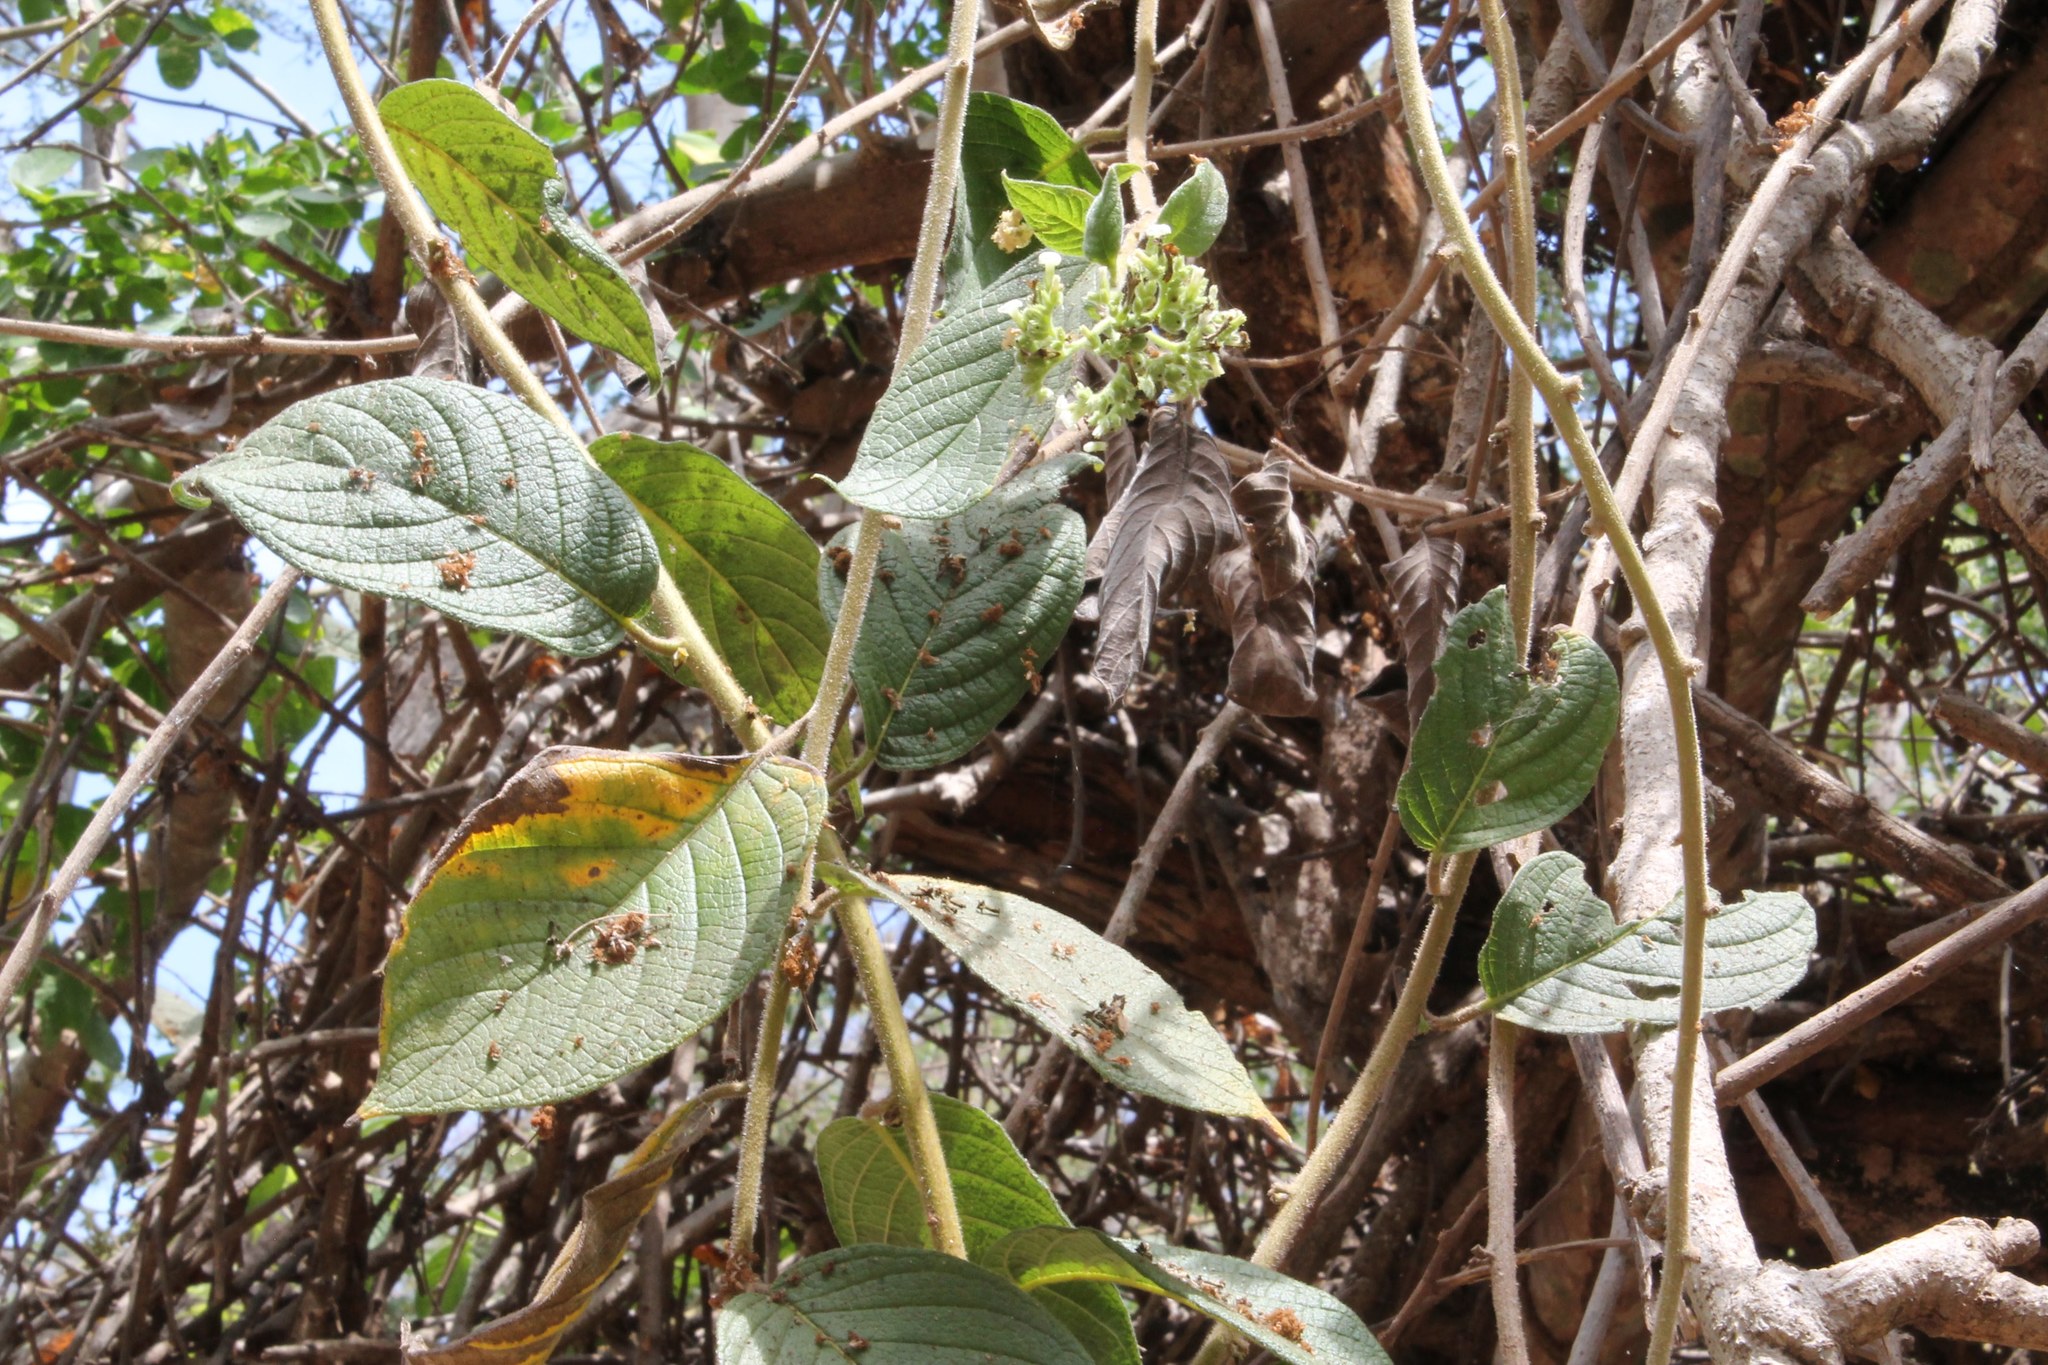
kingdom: Plantae
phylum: Tracheophyta
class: Magnoliopsida
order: Boraginales
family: Heliotropiaceae
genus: Heliotropium
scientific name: Heliotropium verdcourtii
